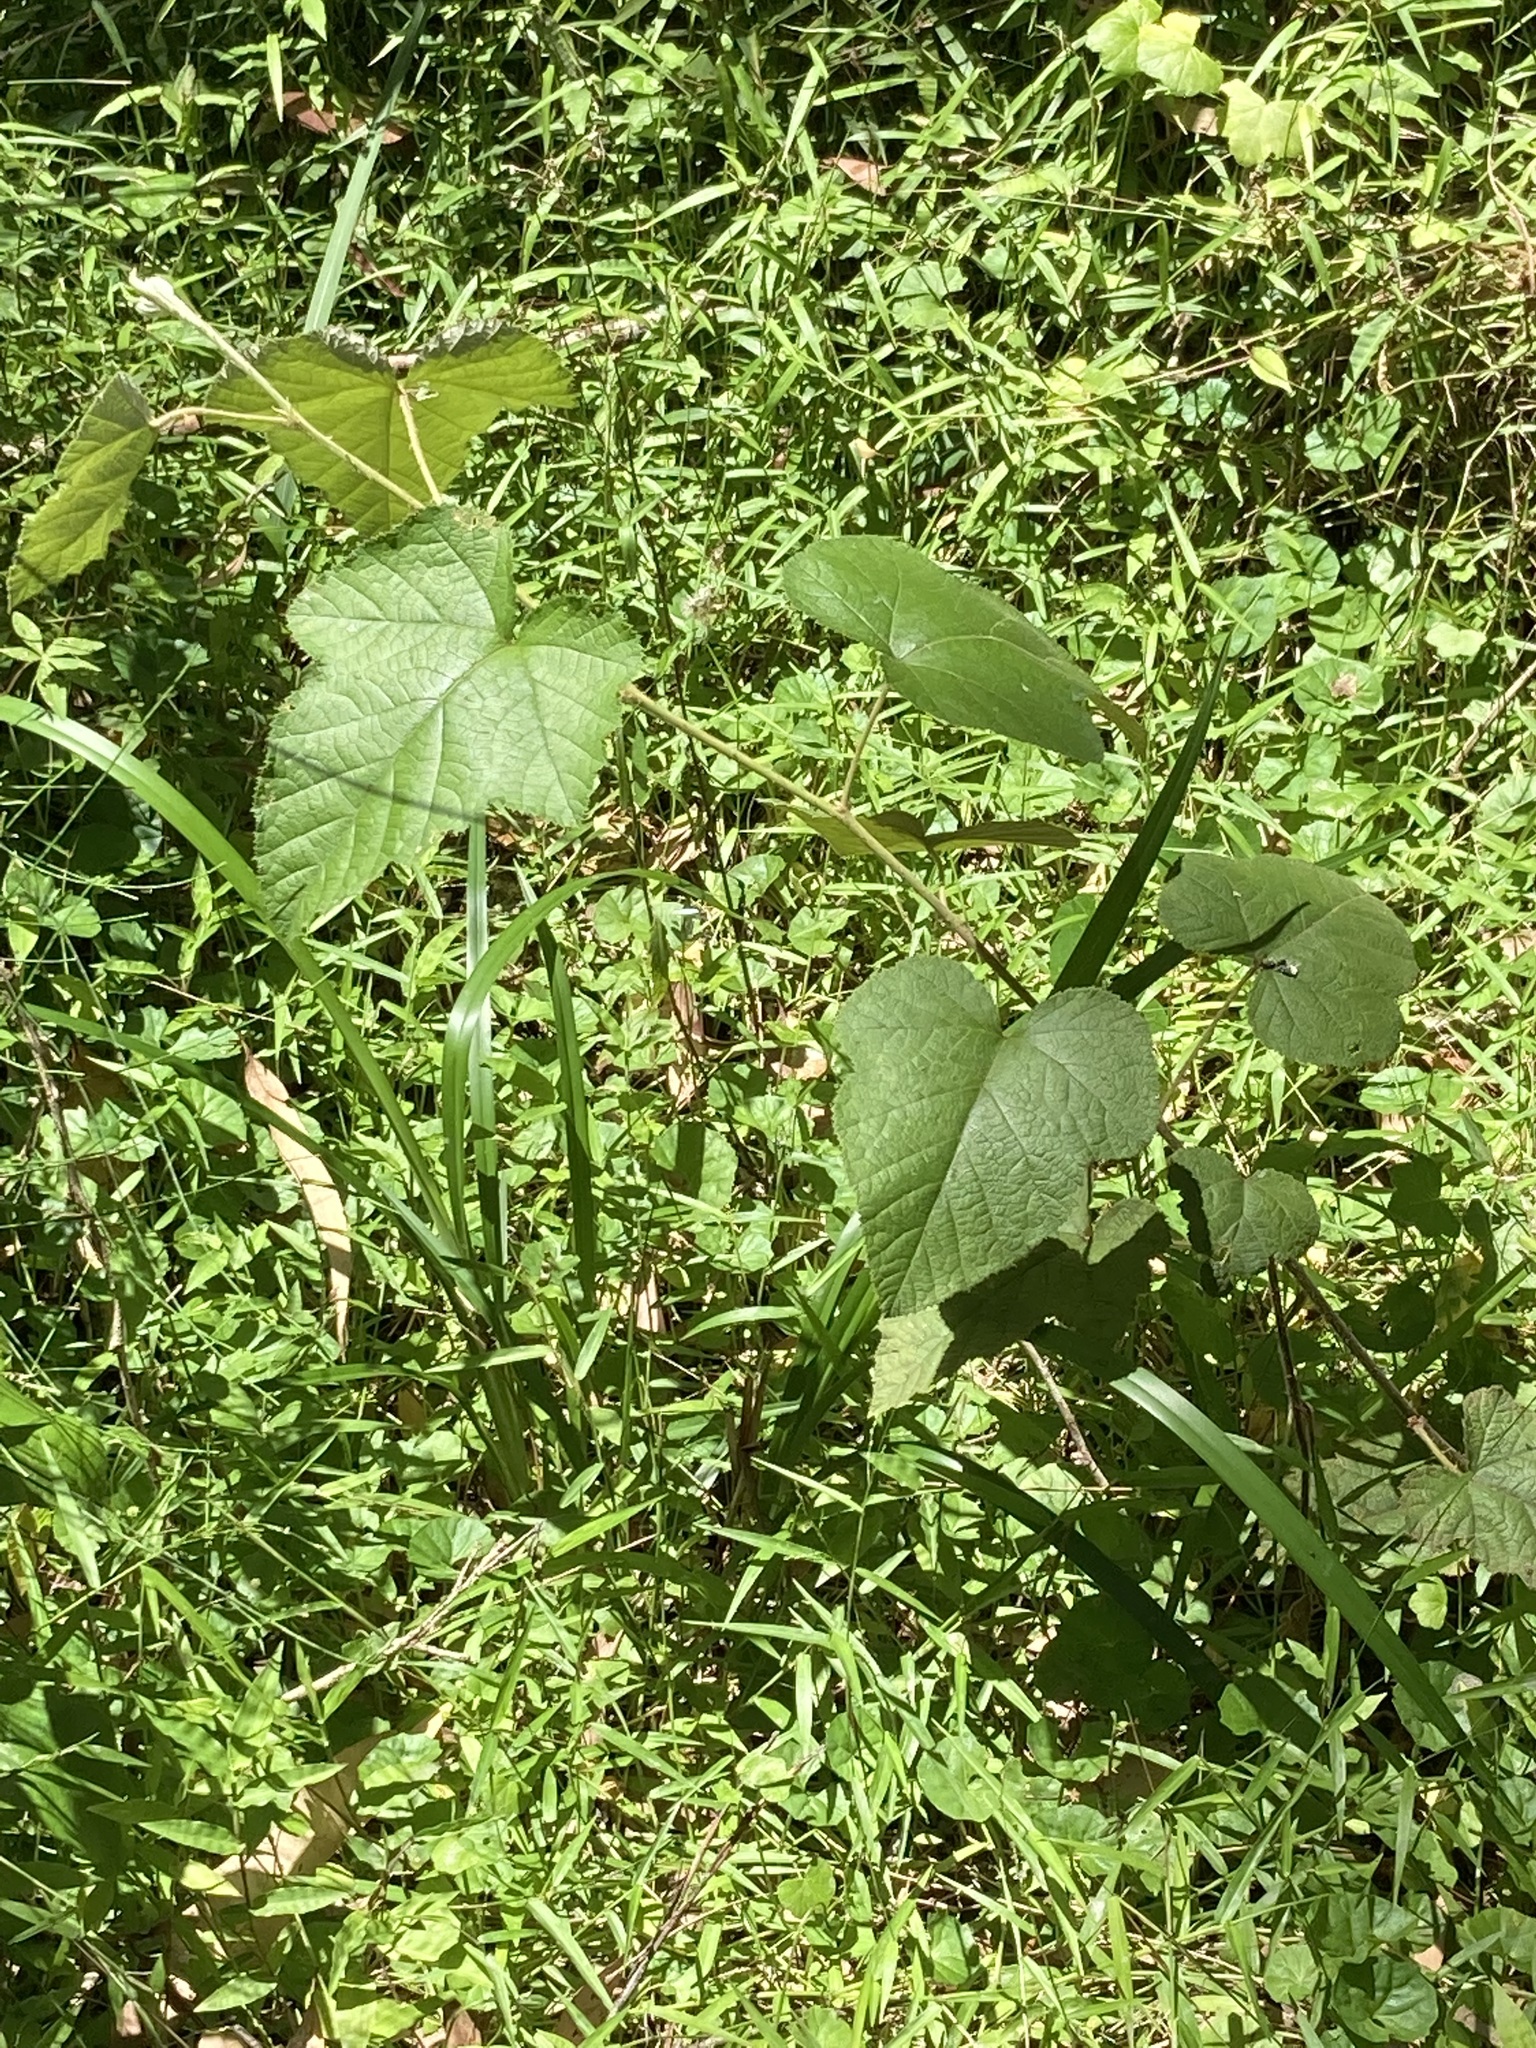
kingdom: Plantae
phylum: Tracheophyta
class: Magnoliopsida
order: Rosales
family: Rosaceae
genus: Rubus
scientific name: Rubus moluccanus
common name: Wild raspberry
